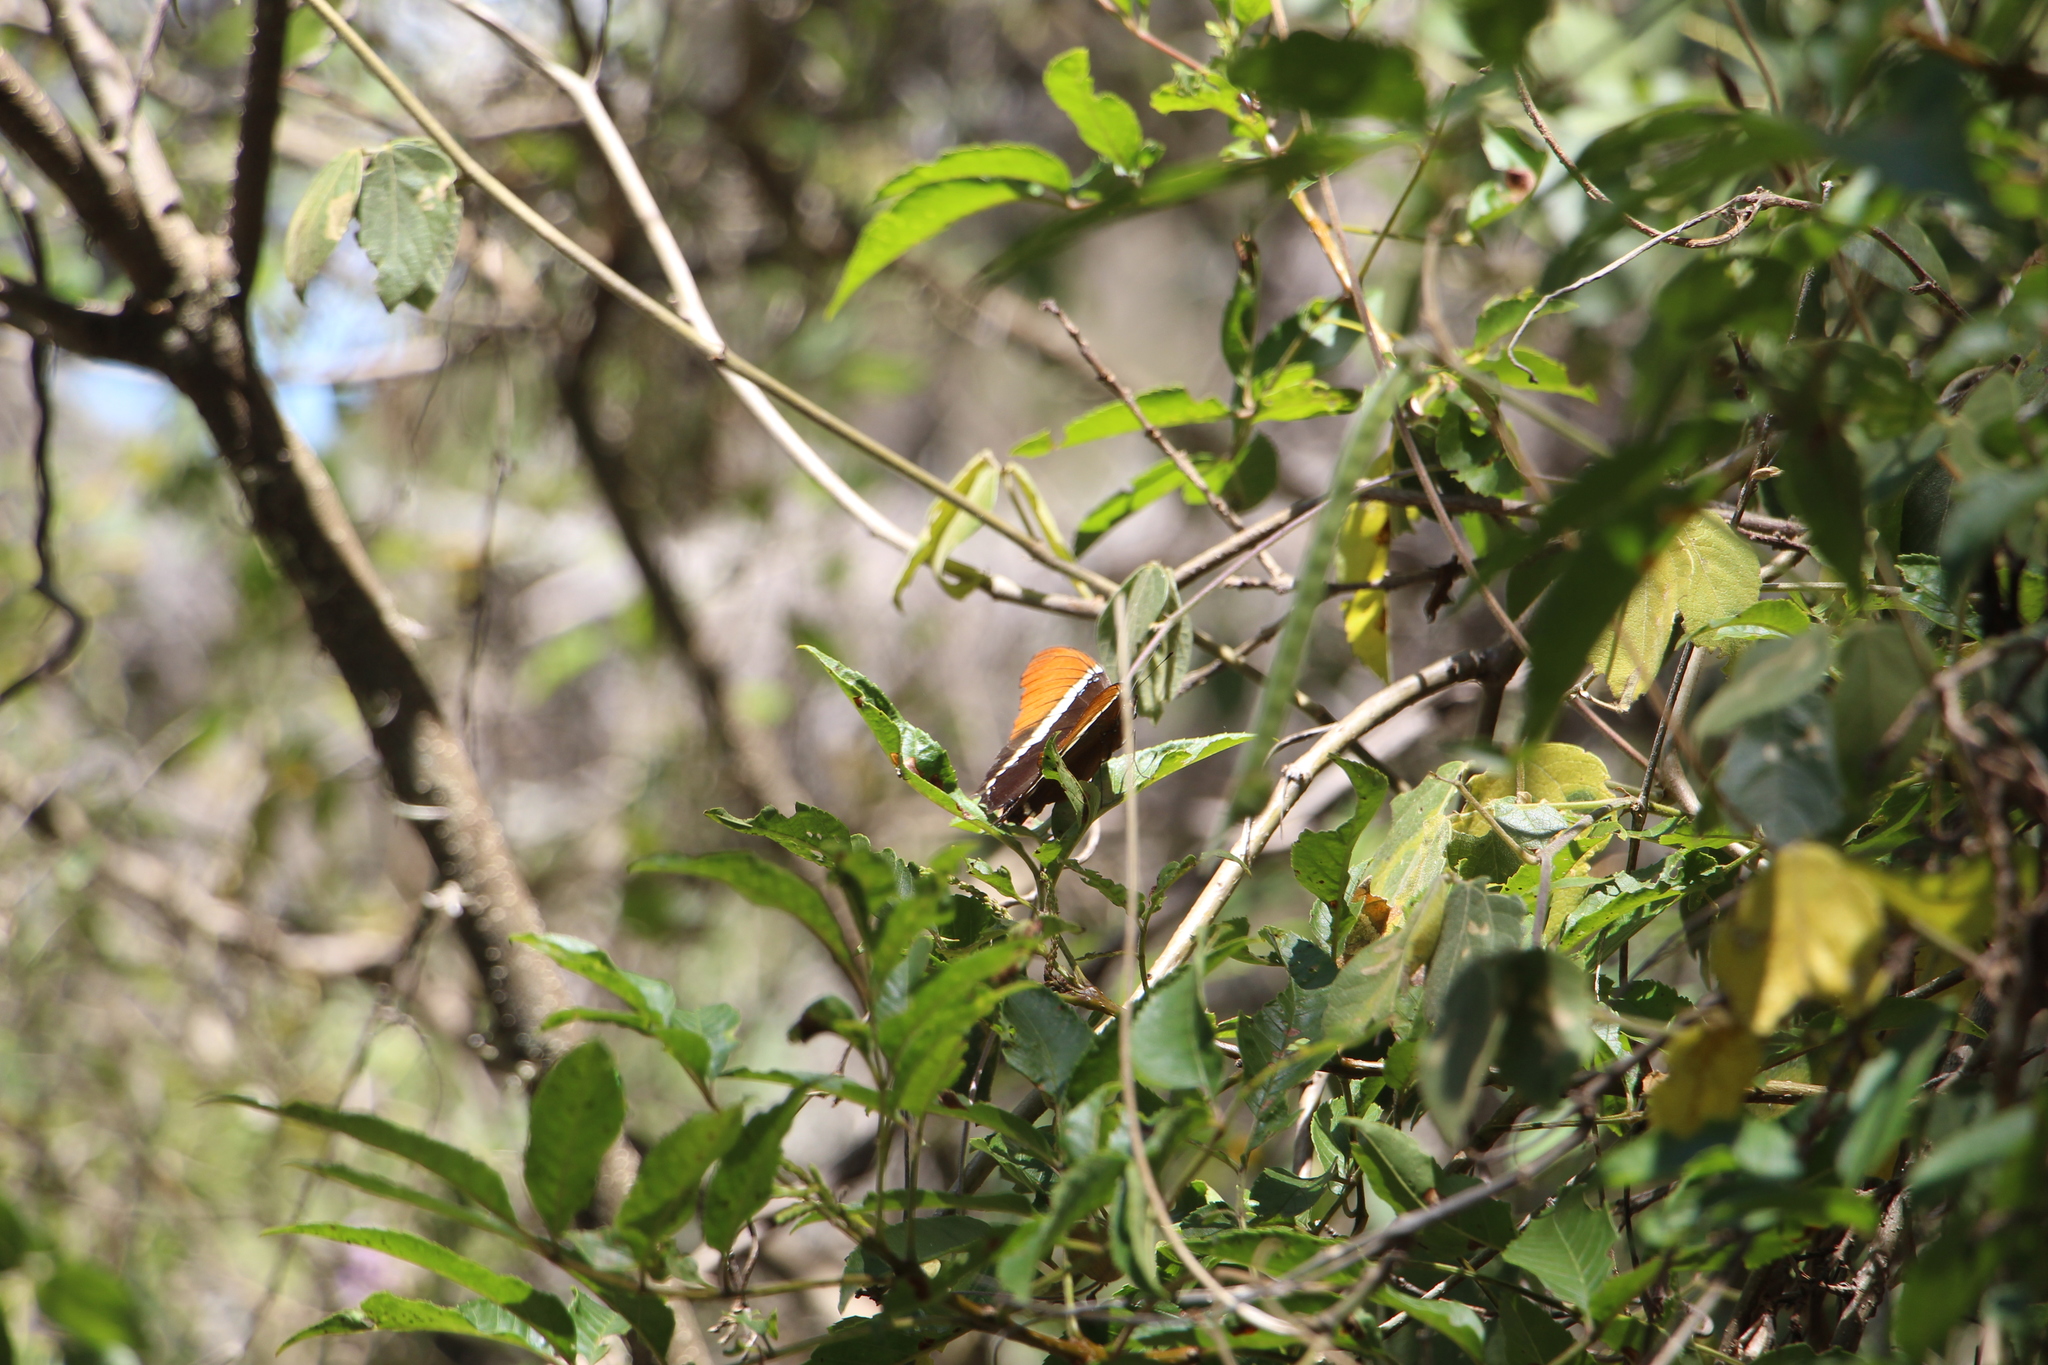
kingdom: Animalia
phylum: Arthropoda
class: Insecta
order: Lepidoptera
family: Nymphalidae
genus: Siproeta
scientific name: Siproeta epaphus
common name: Rusty-tipped page
